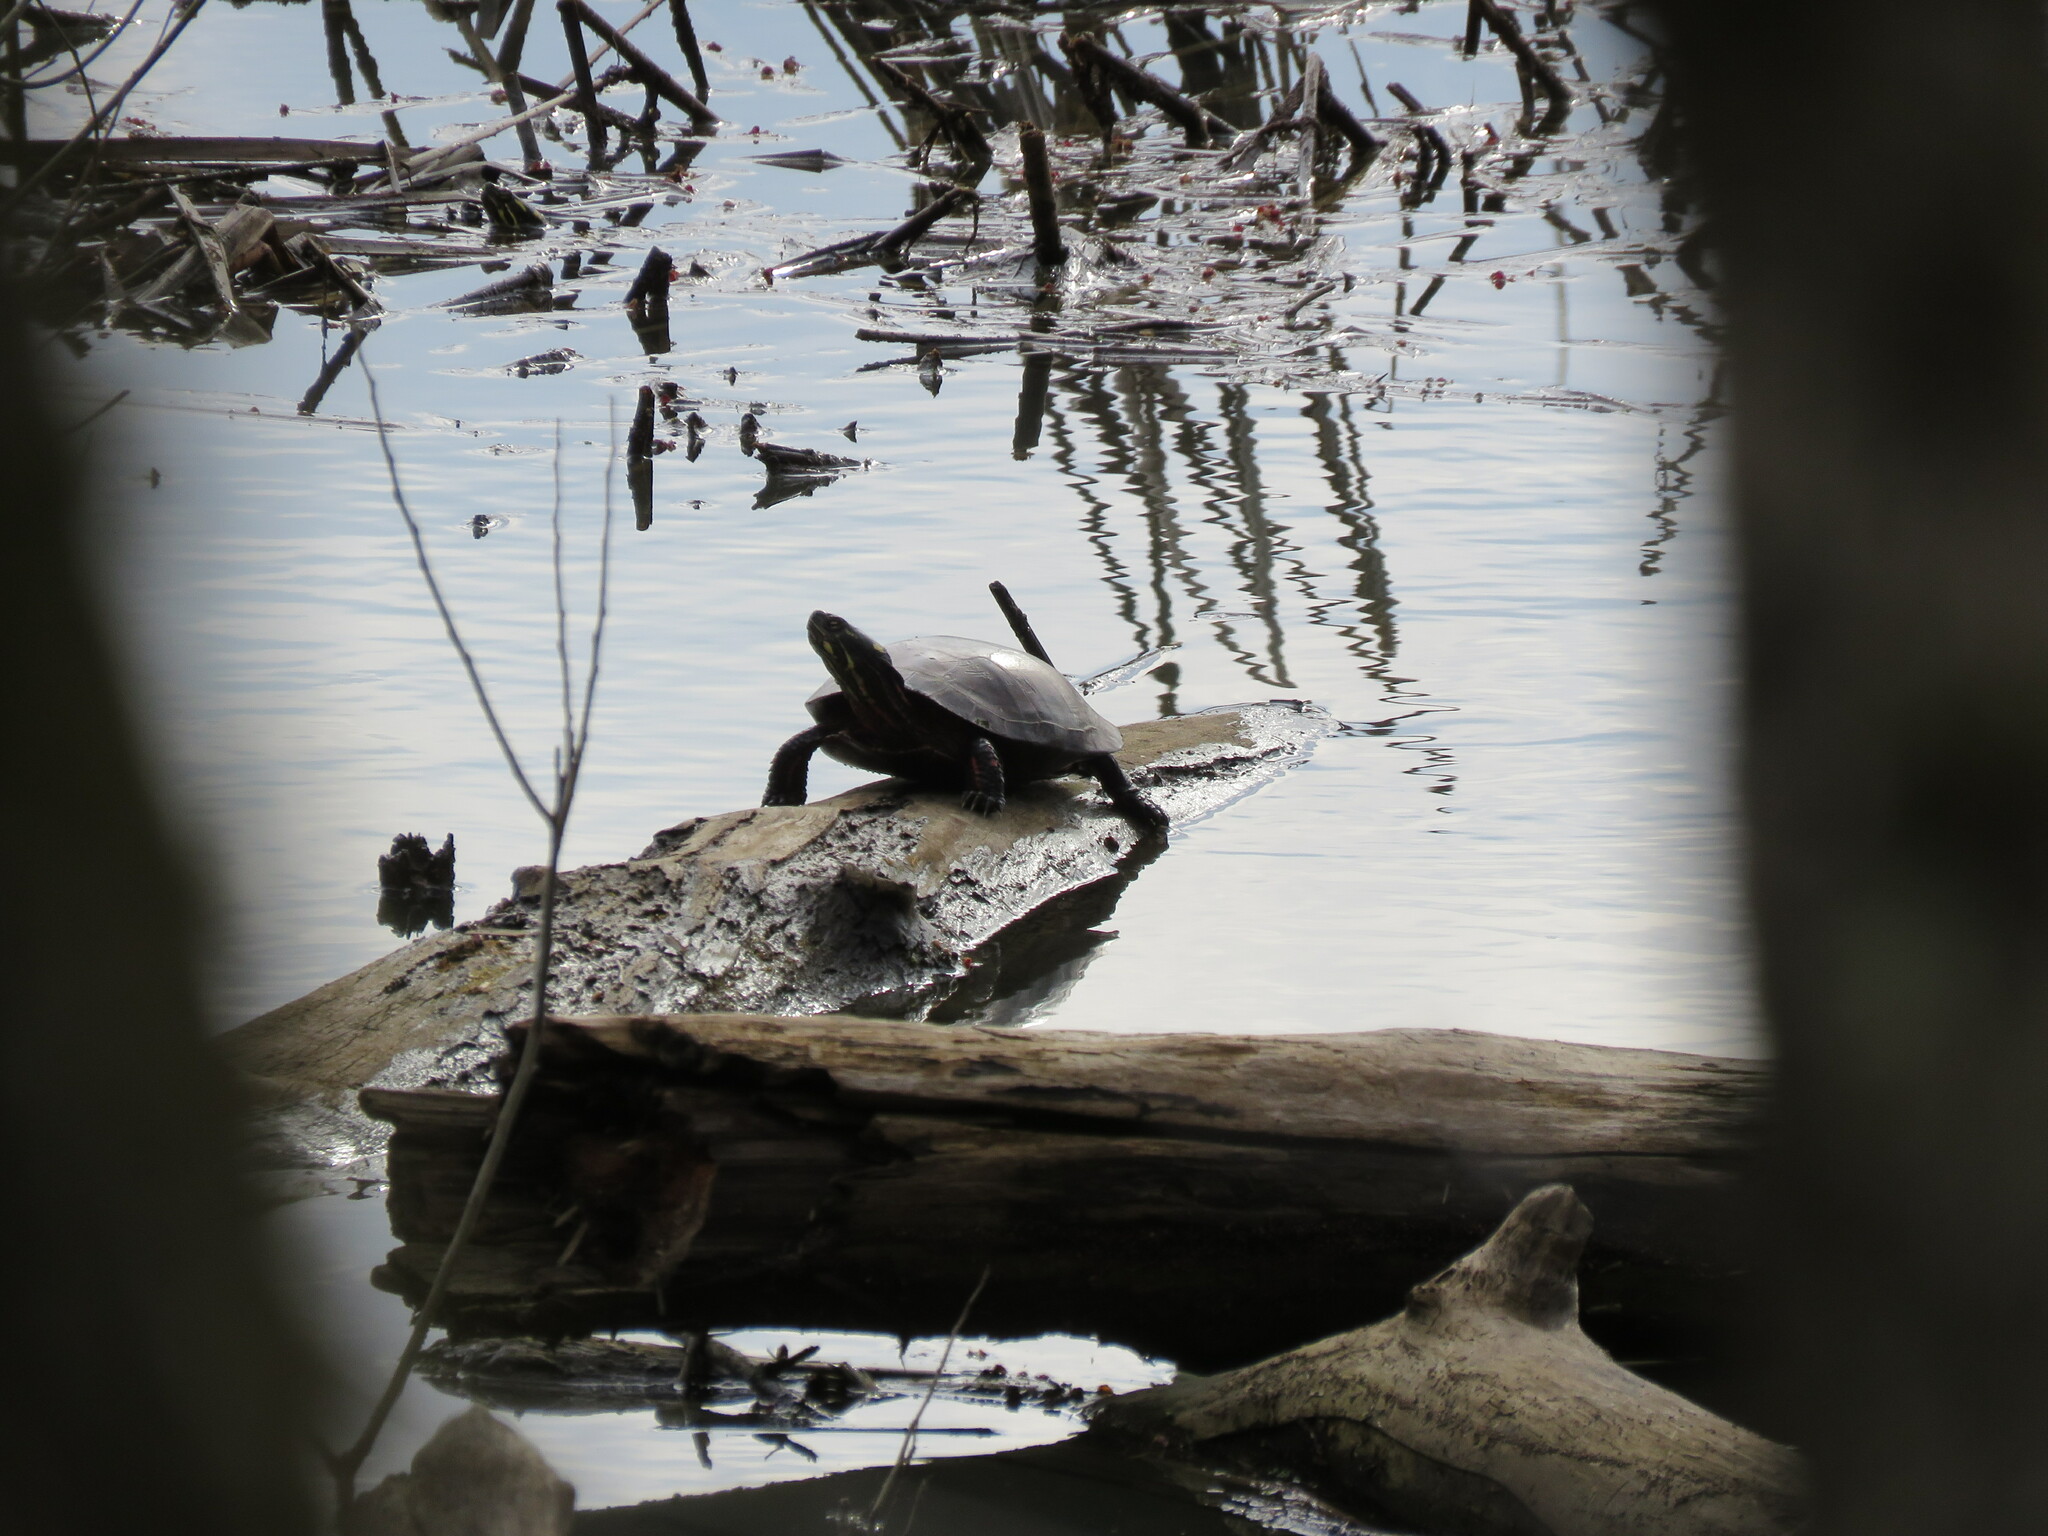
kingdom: Animalia
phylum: Chordata
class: Testudines
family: Emydidae
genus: Chrysemys
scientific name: Chrysemys picta
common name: Painted turtle
